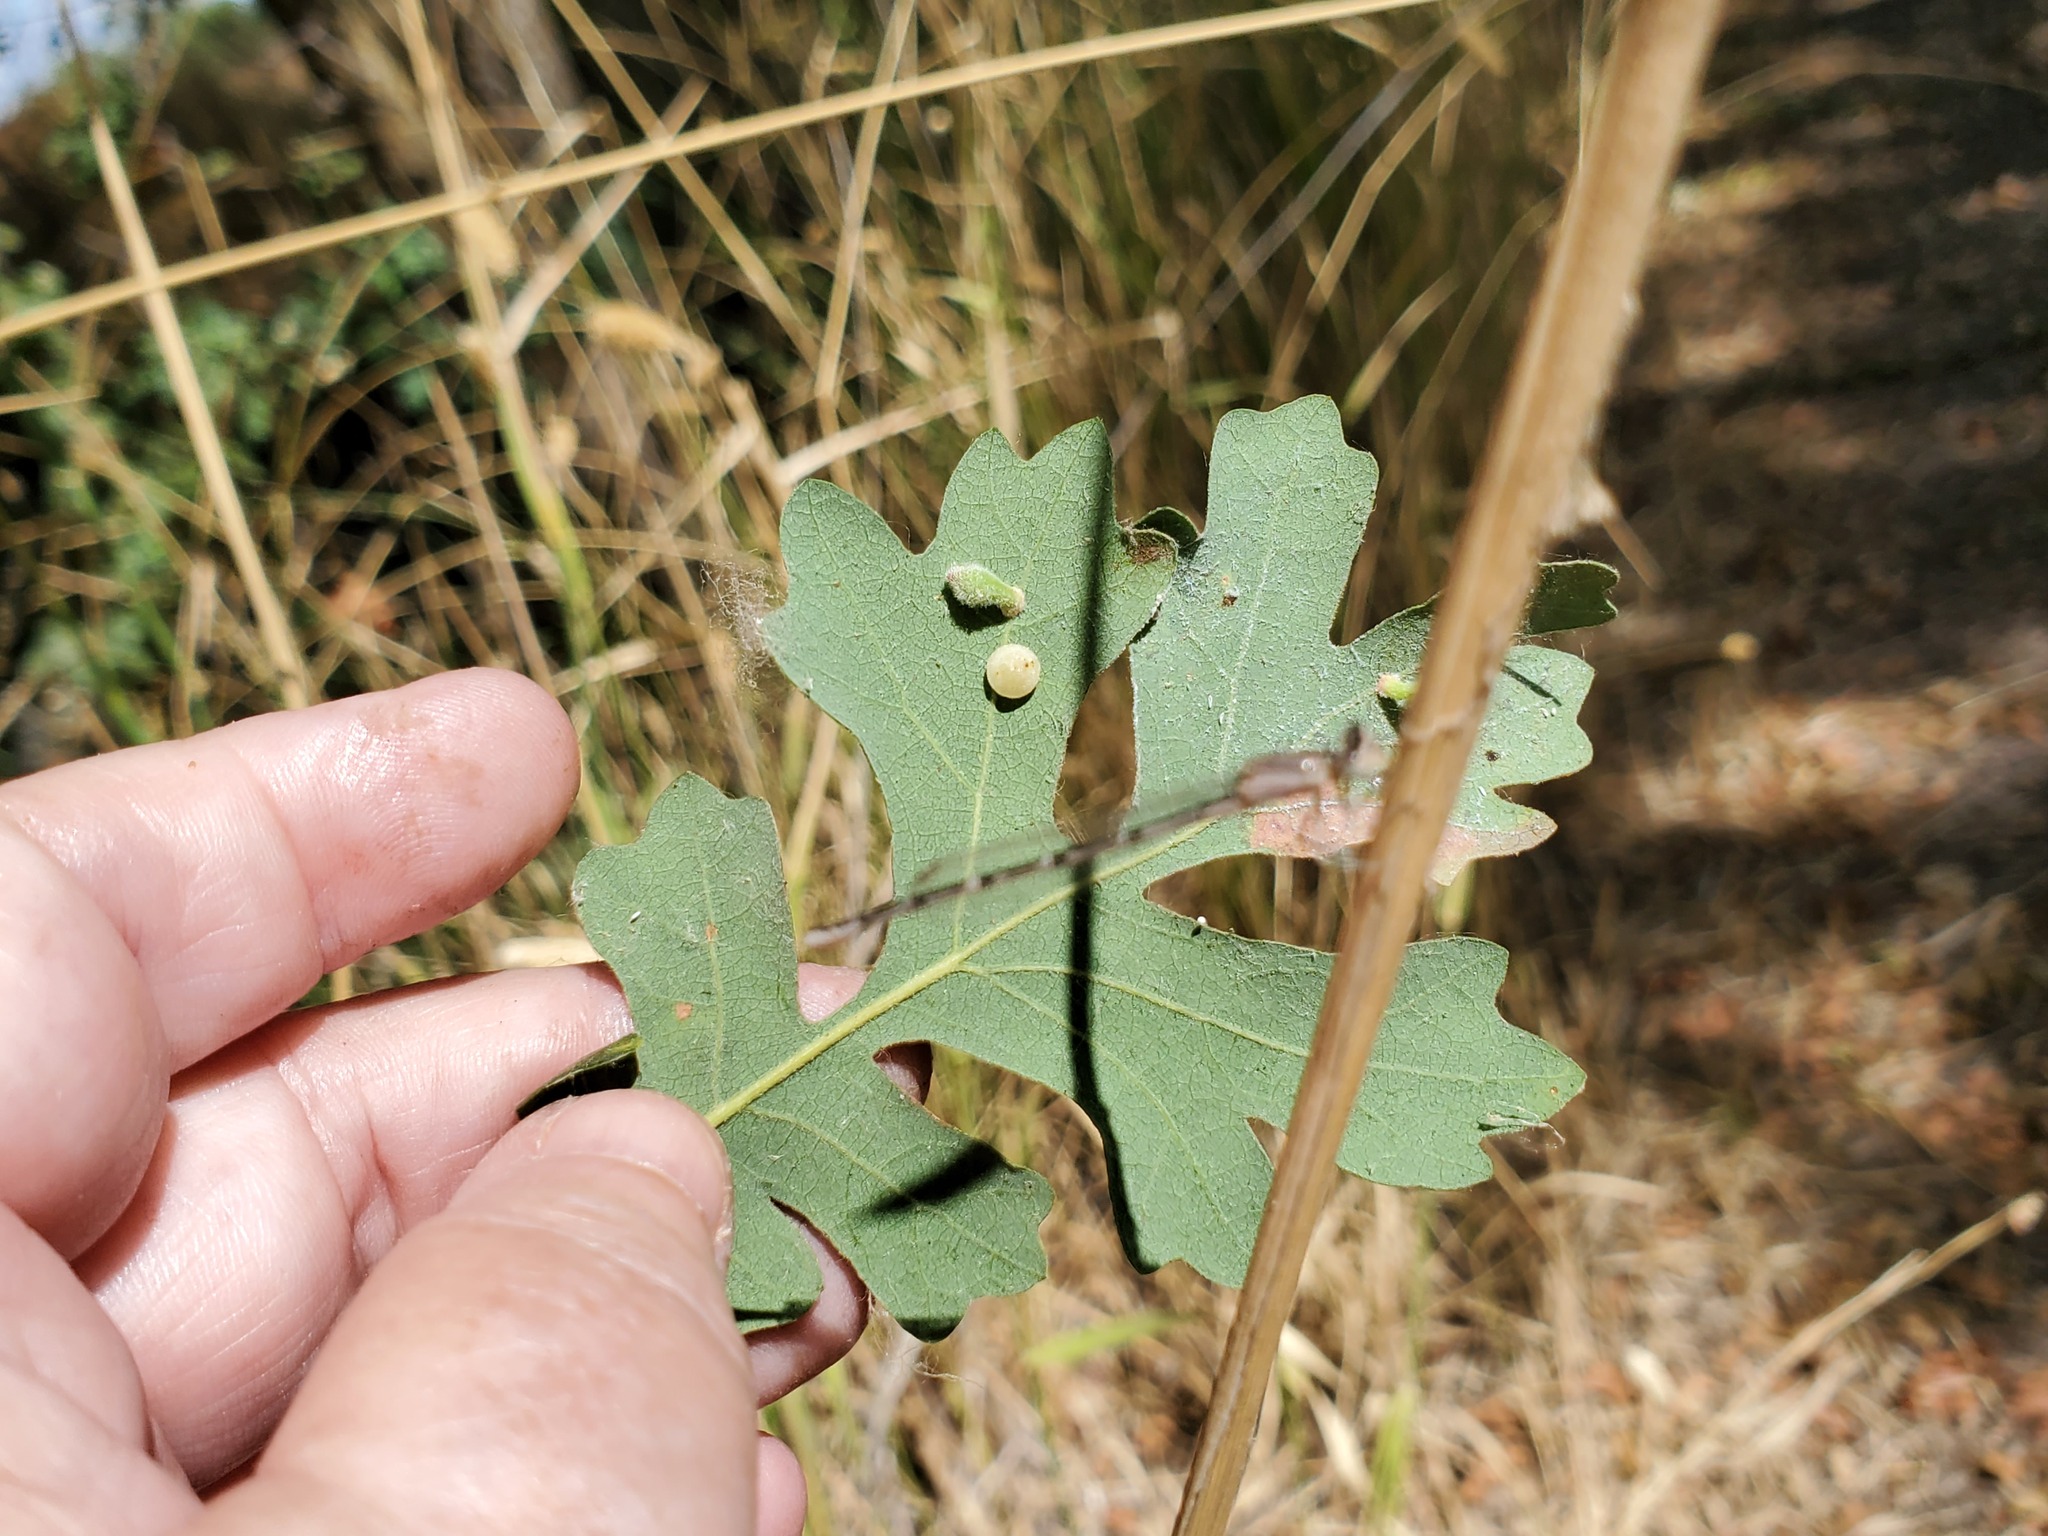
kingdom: Plantae
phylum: Tracheophyta
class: Magnoliopsida
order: Fagales
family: Fagaceae
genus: Quercus
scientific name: Quercus lobata
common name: Valley oak
